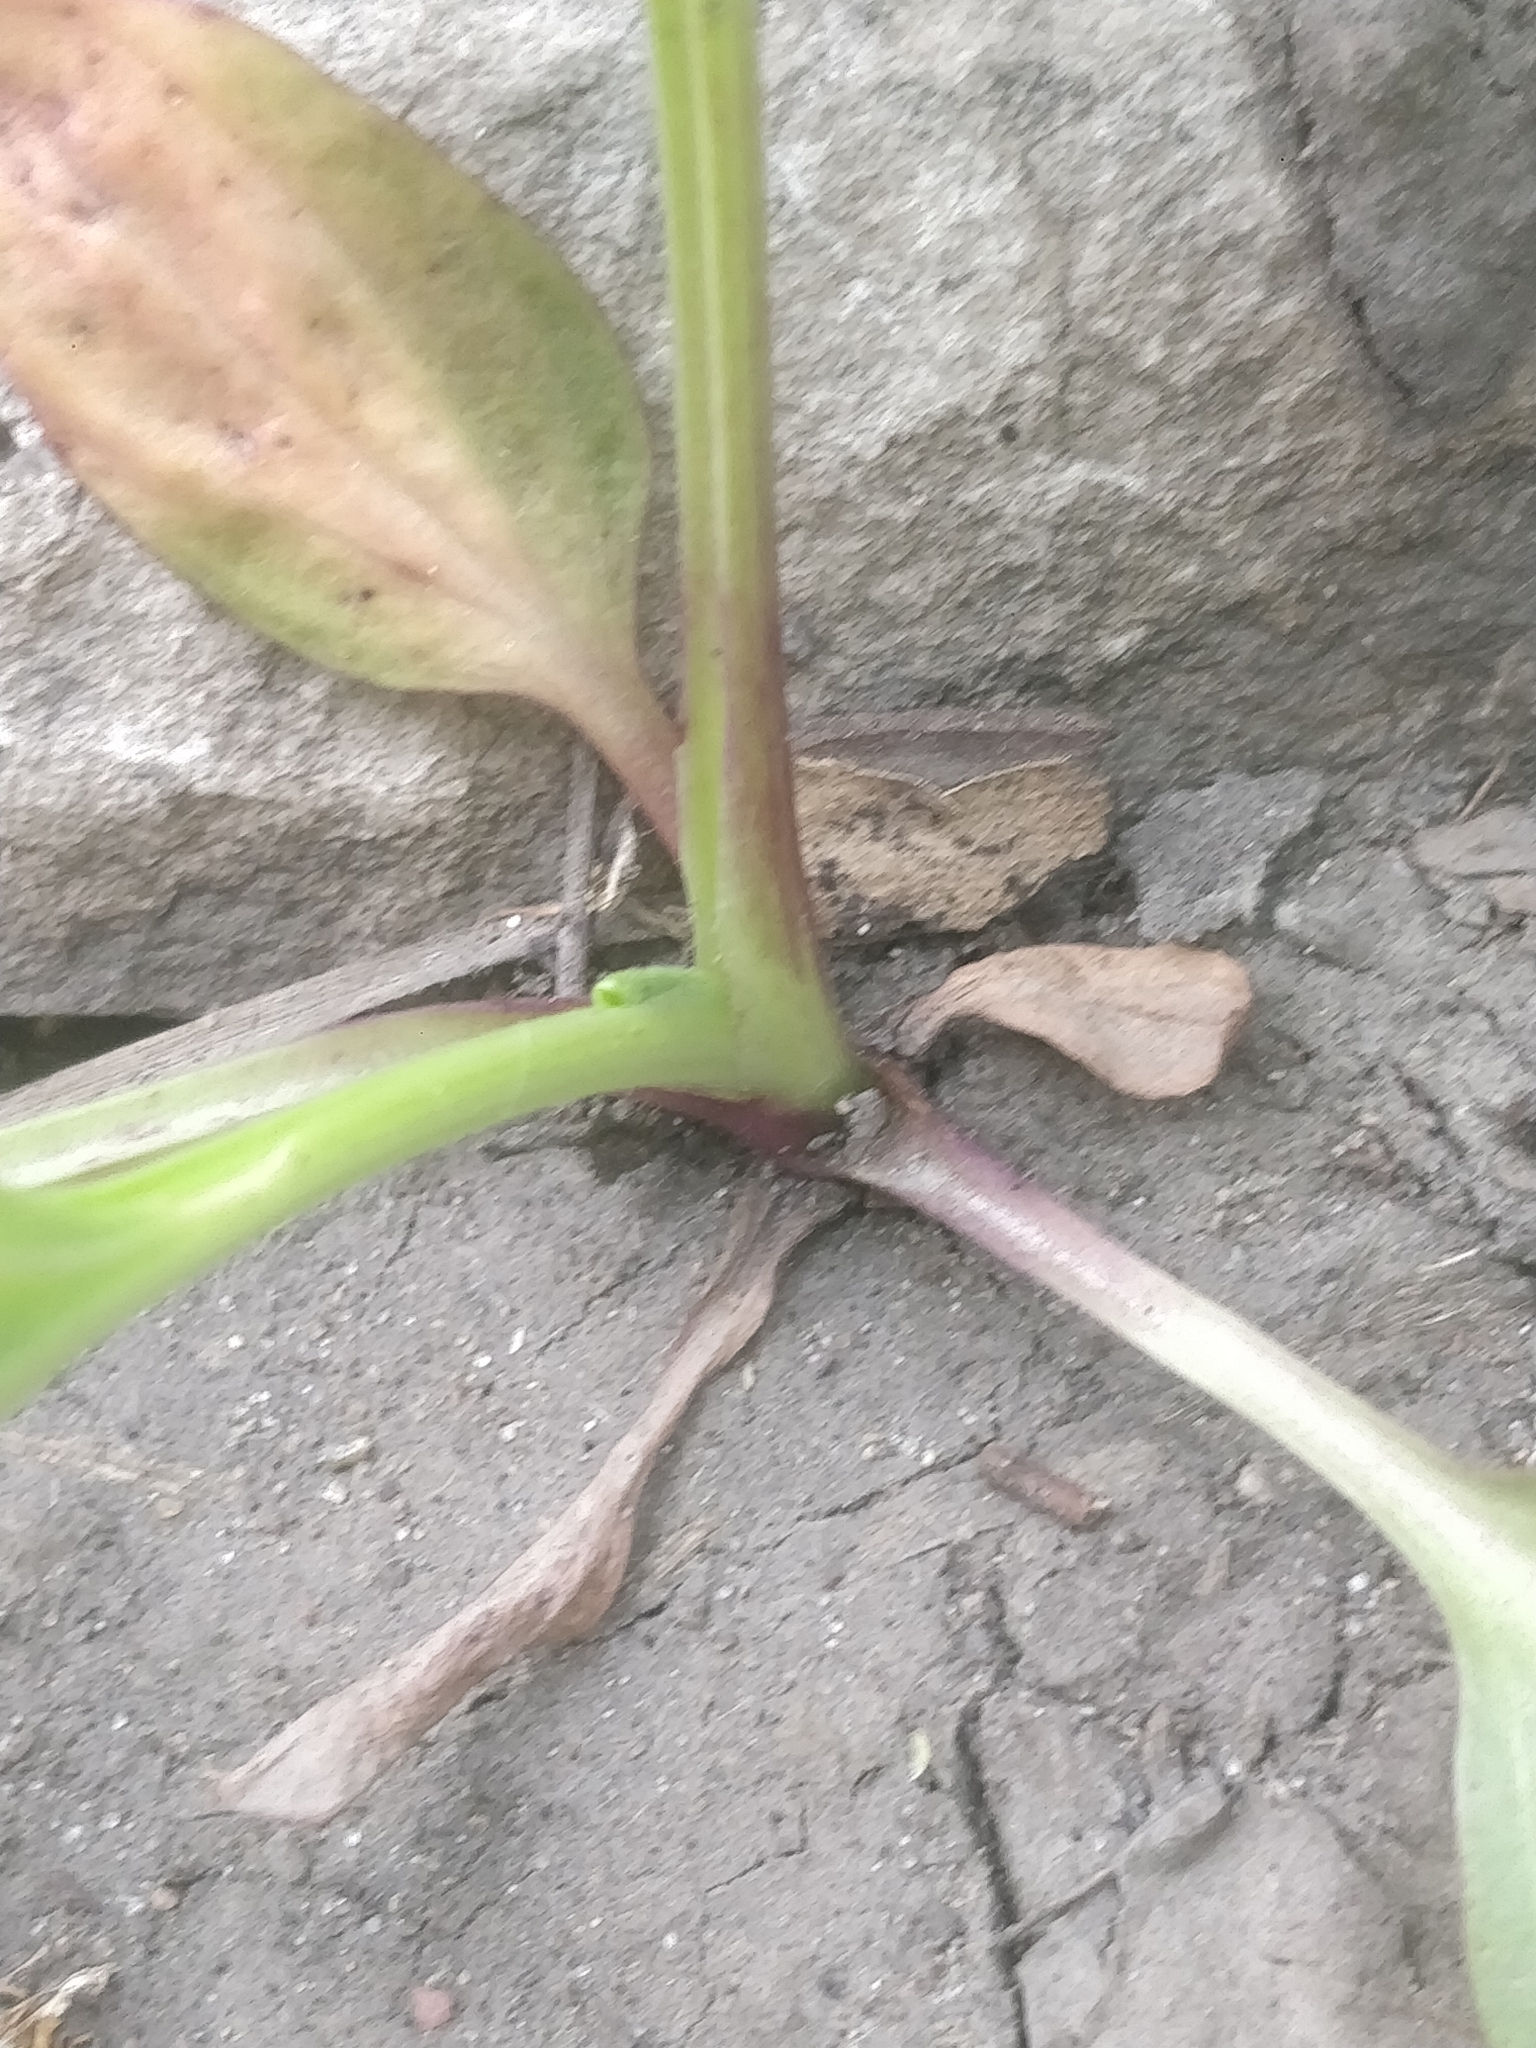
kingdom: Plantae
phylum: Tracheophyta
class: Magnoliopsida
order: Lamiales
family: Plantaginaceae
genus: Plantago
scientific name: Plantago rugelii
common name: American plantain
